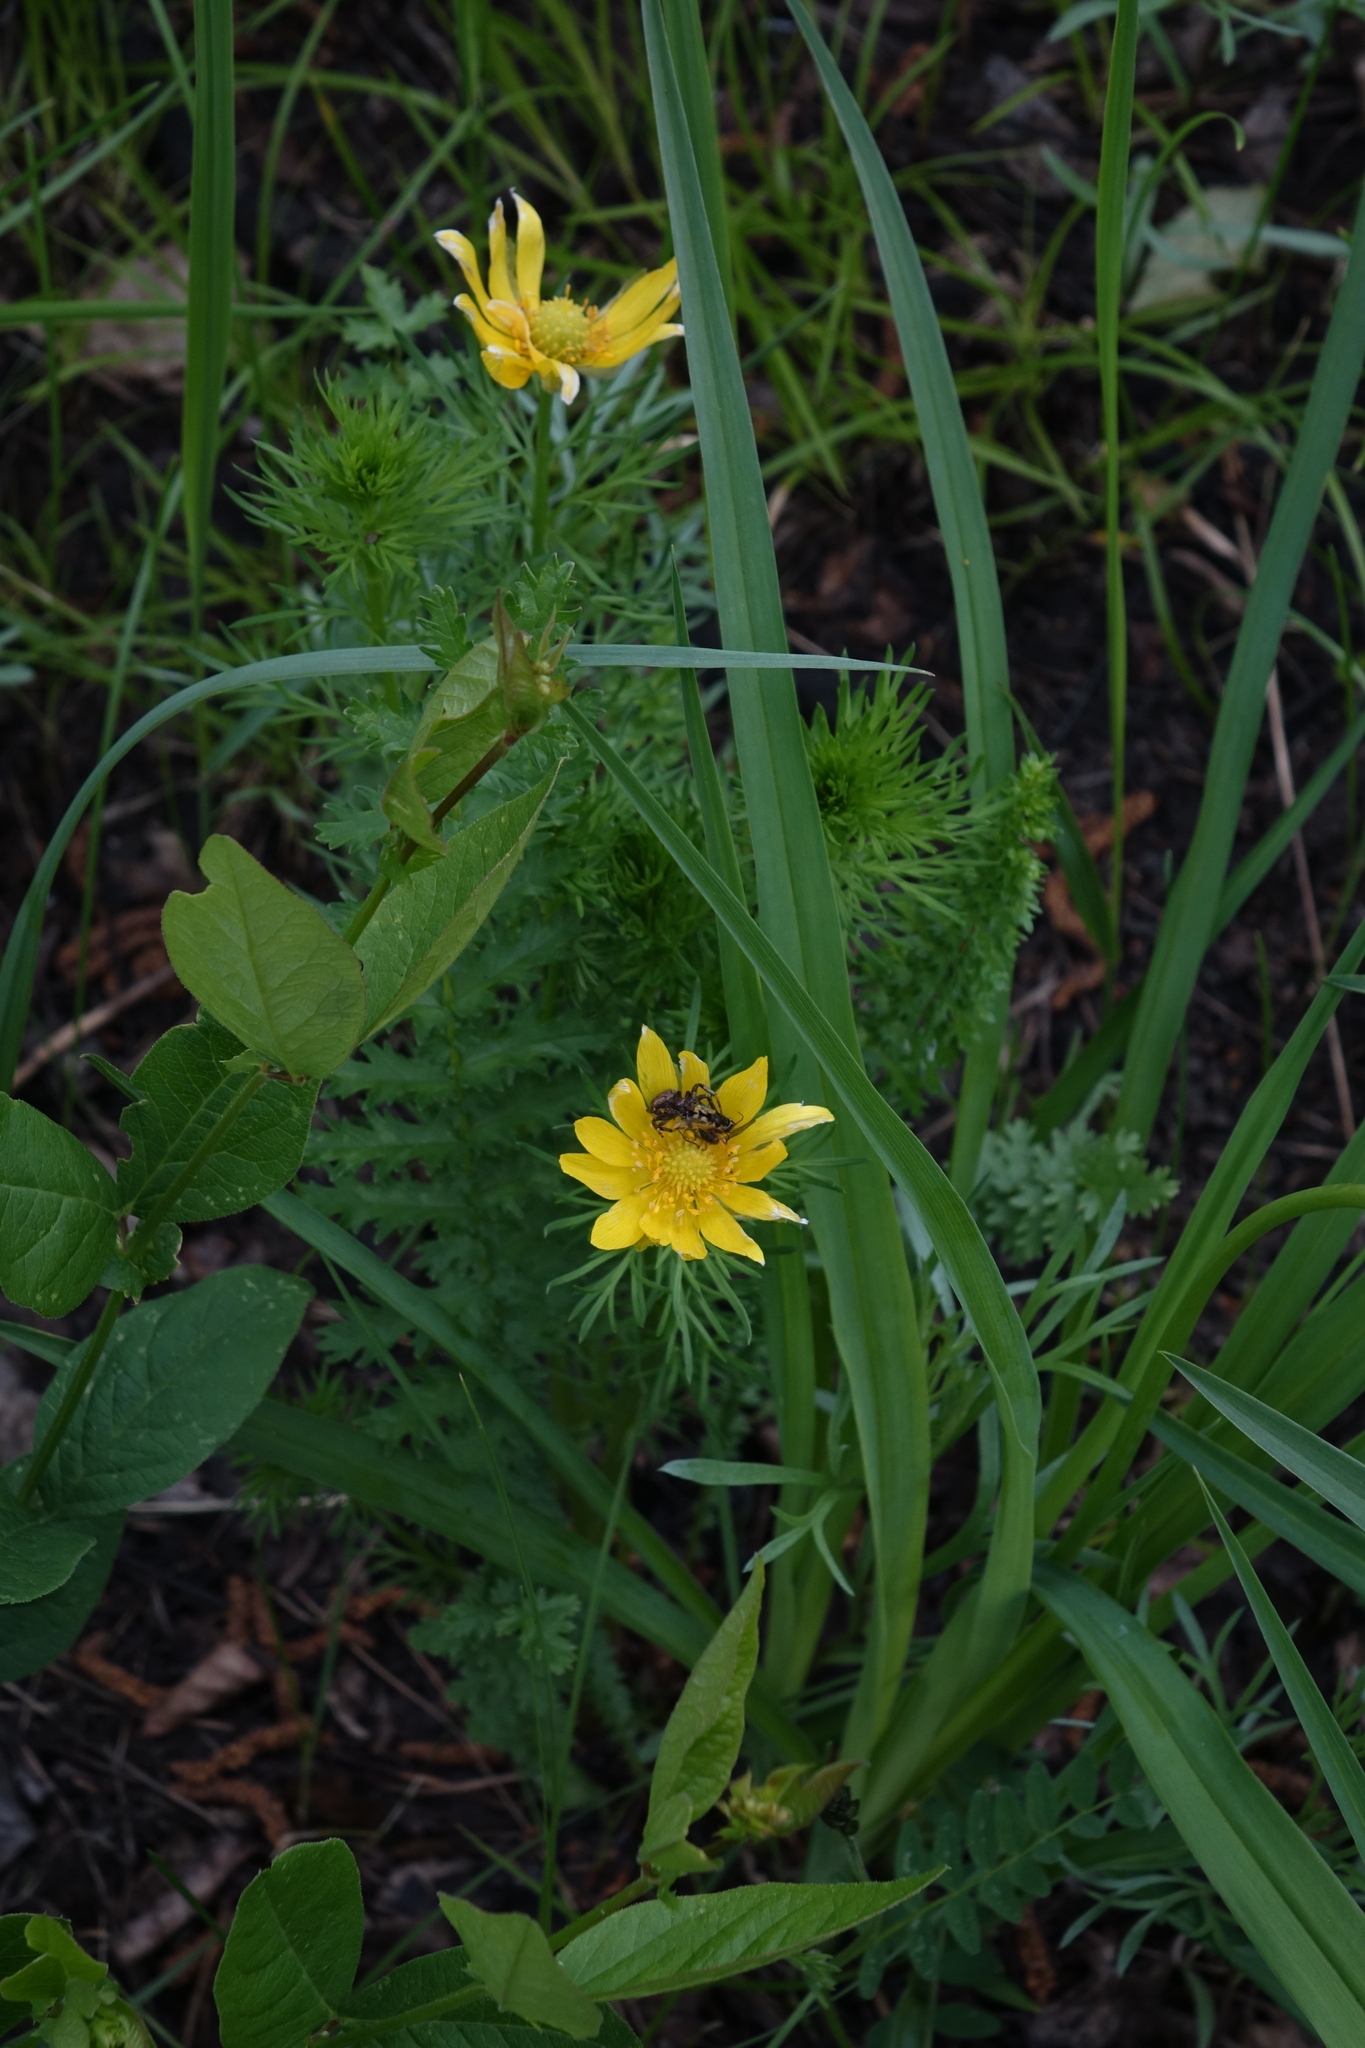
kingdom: Plantae
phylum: Tracheophyta
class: Magnoliopsida
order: Ranunculales
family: Ranunculaceae
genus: Adonis
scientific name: Adonis vernalis
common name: Yellow pheasants-eye
